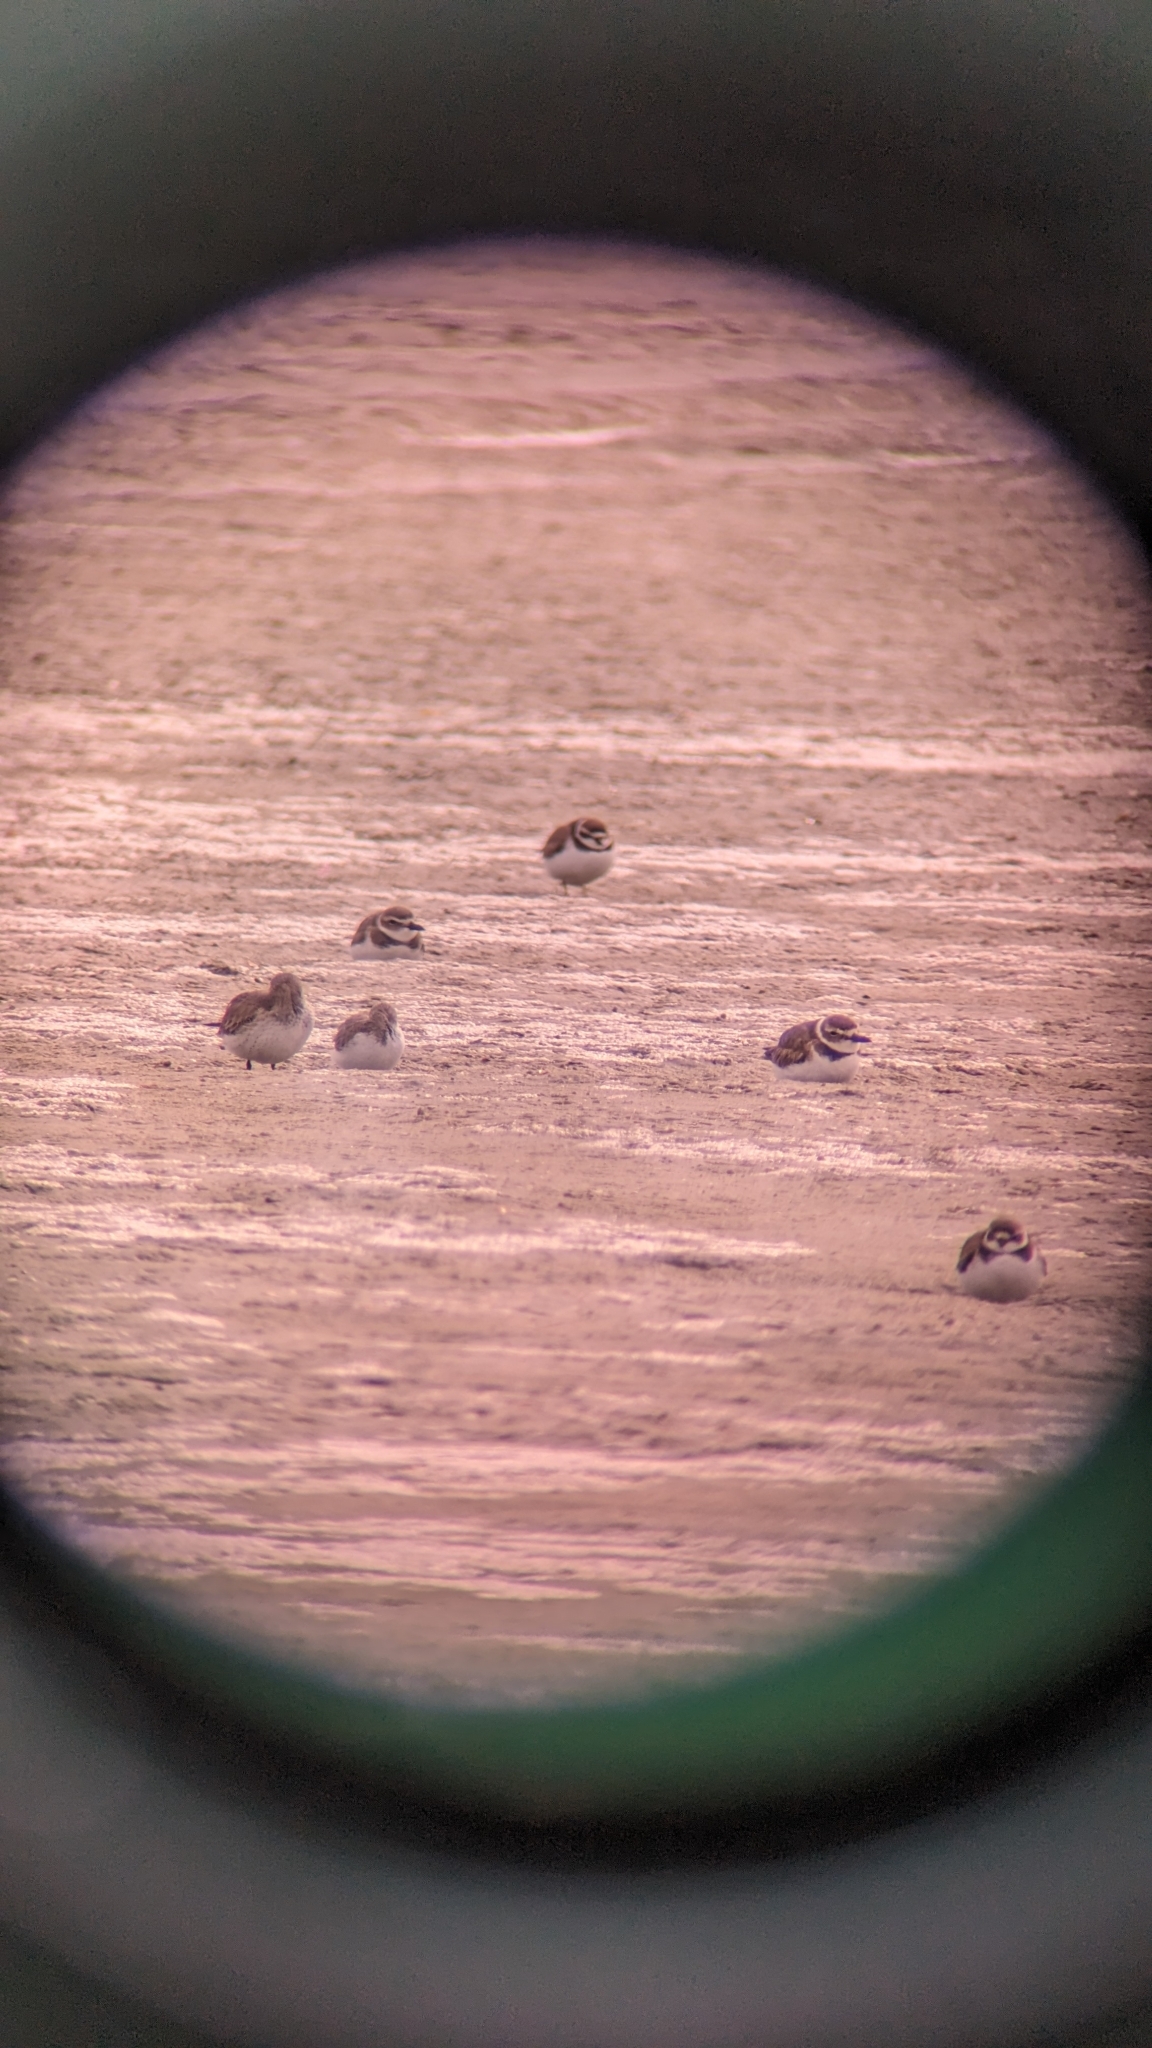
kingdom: Animalia
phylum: Chordata
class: Aves
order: Charadriiformes
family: Charadriidae
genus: Anarhynchus
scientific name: Anarhynchus
